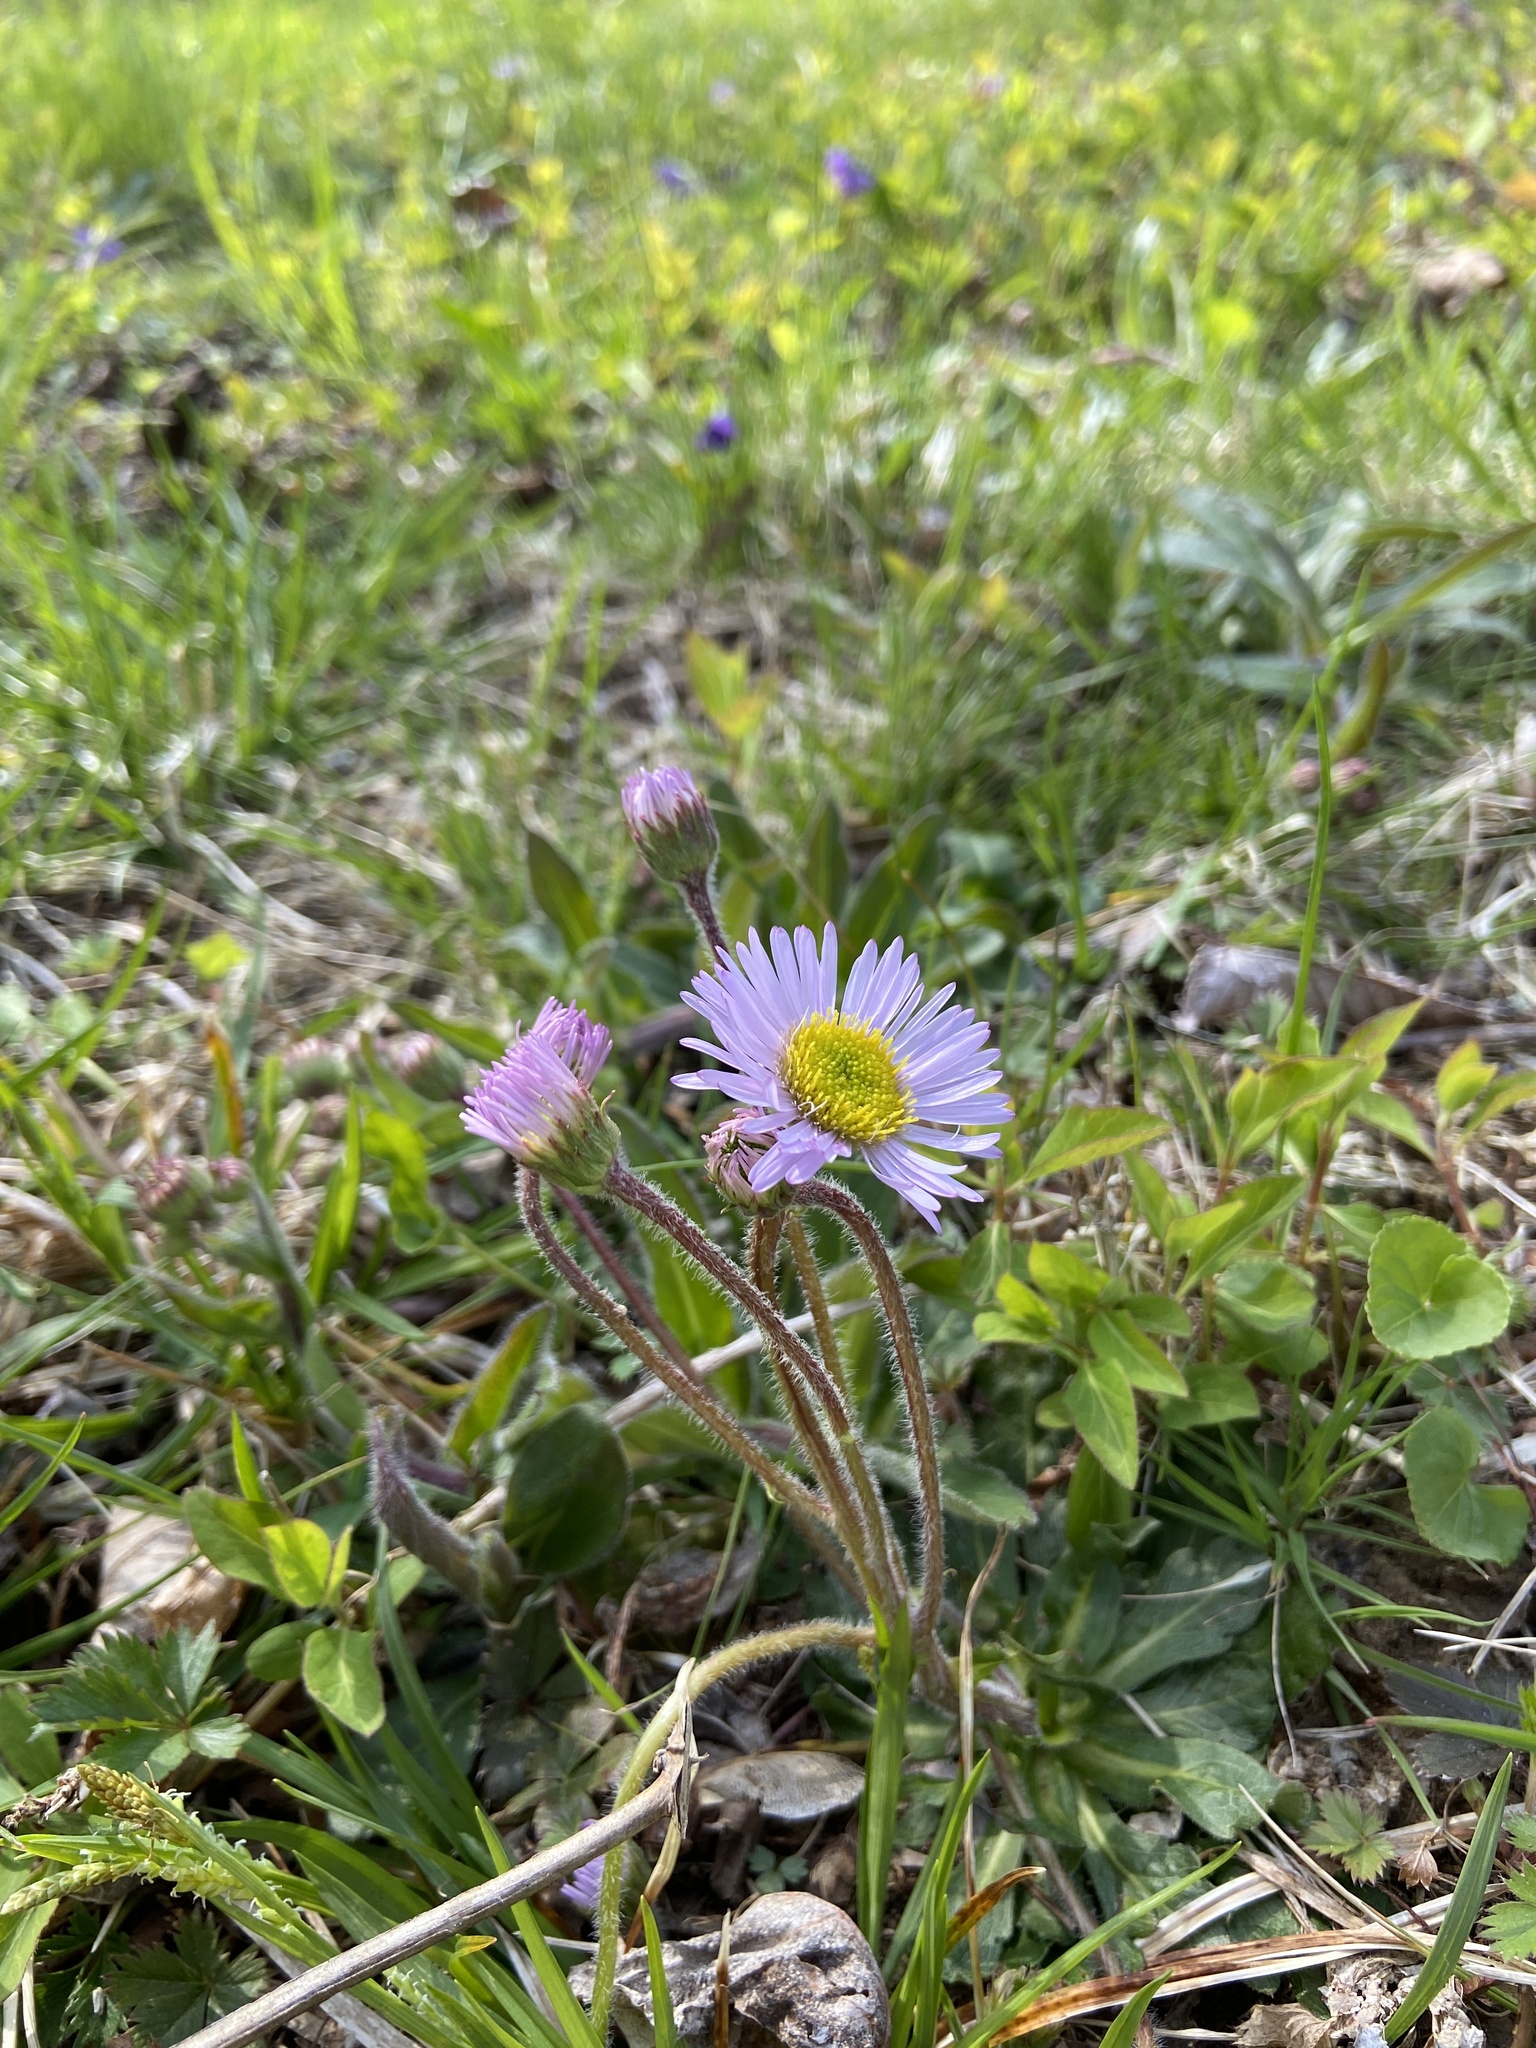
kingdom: Plantae
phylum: Tracheophyta
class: Magnoliopsida
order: Asterales
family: Asteraceae
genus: Erigeron
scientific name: Erigeron pulchellus
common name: Hairy fleabane
